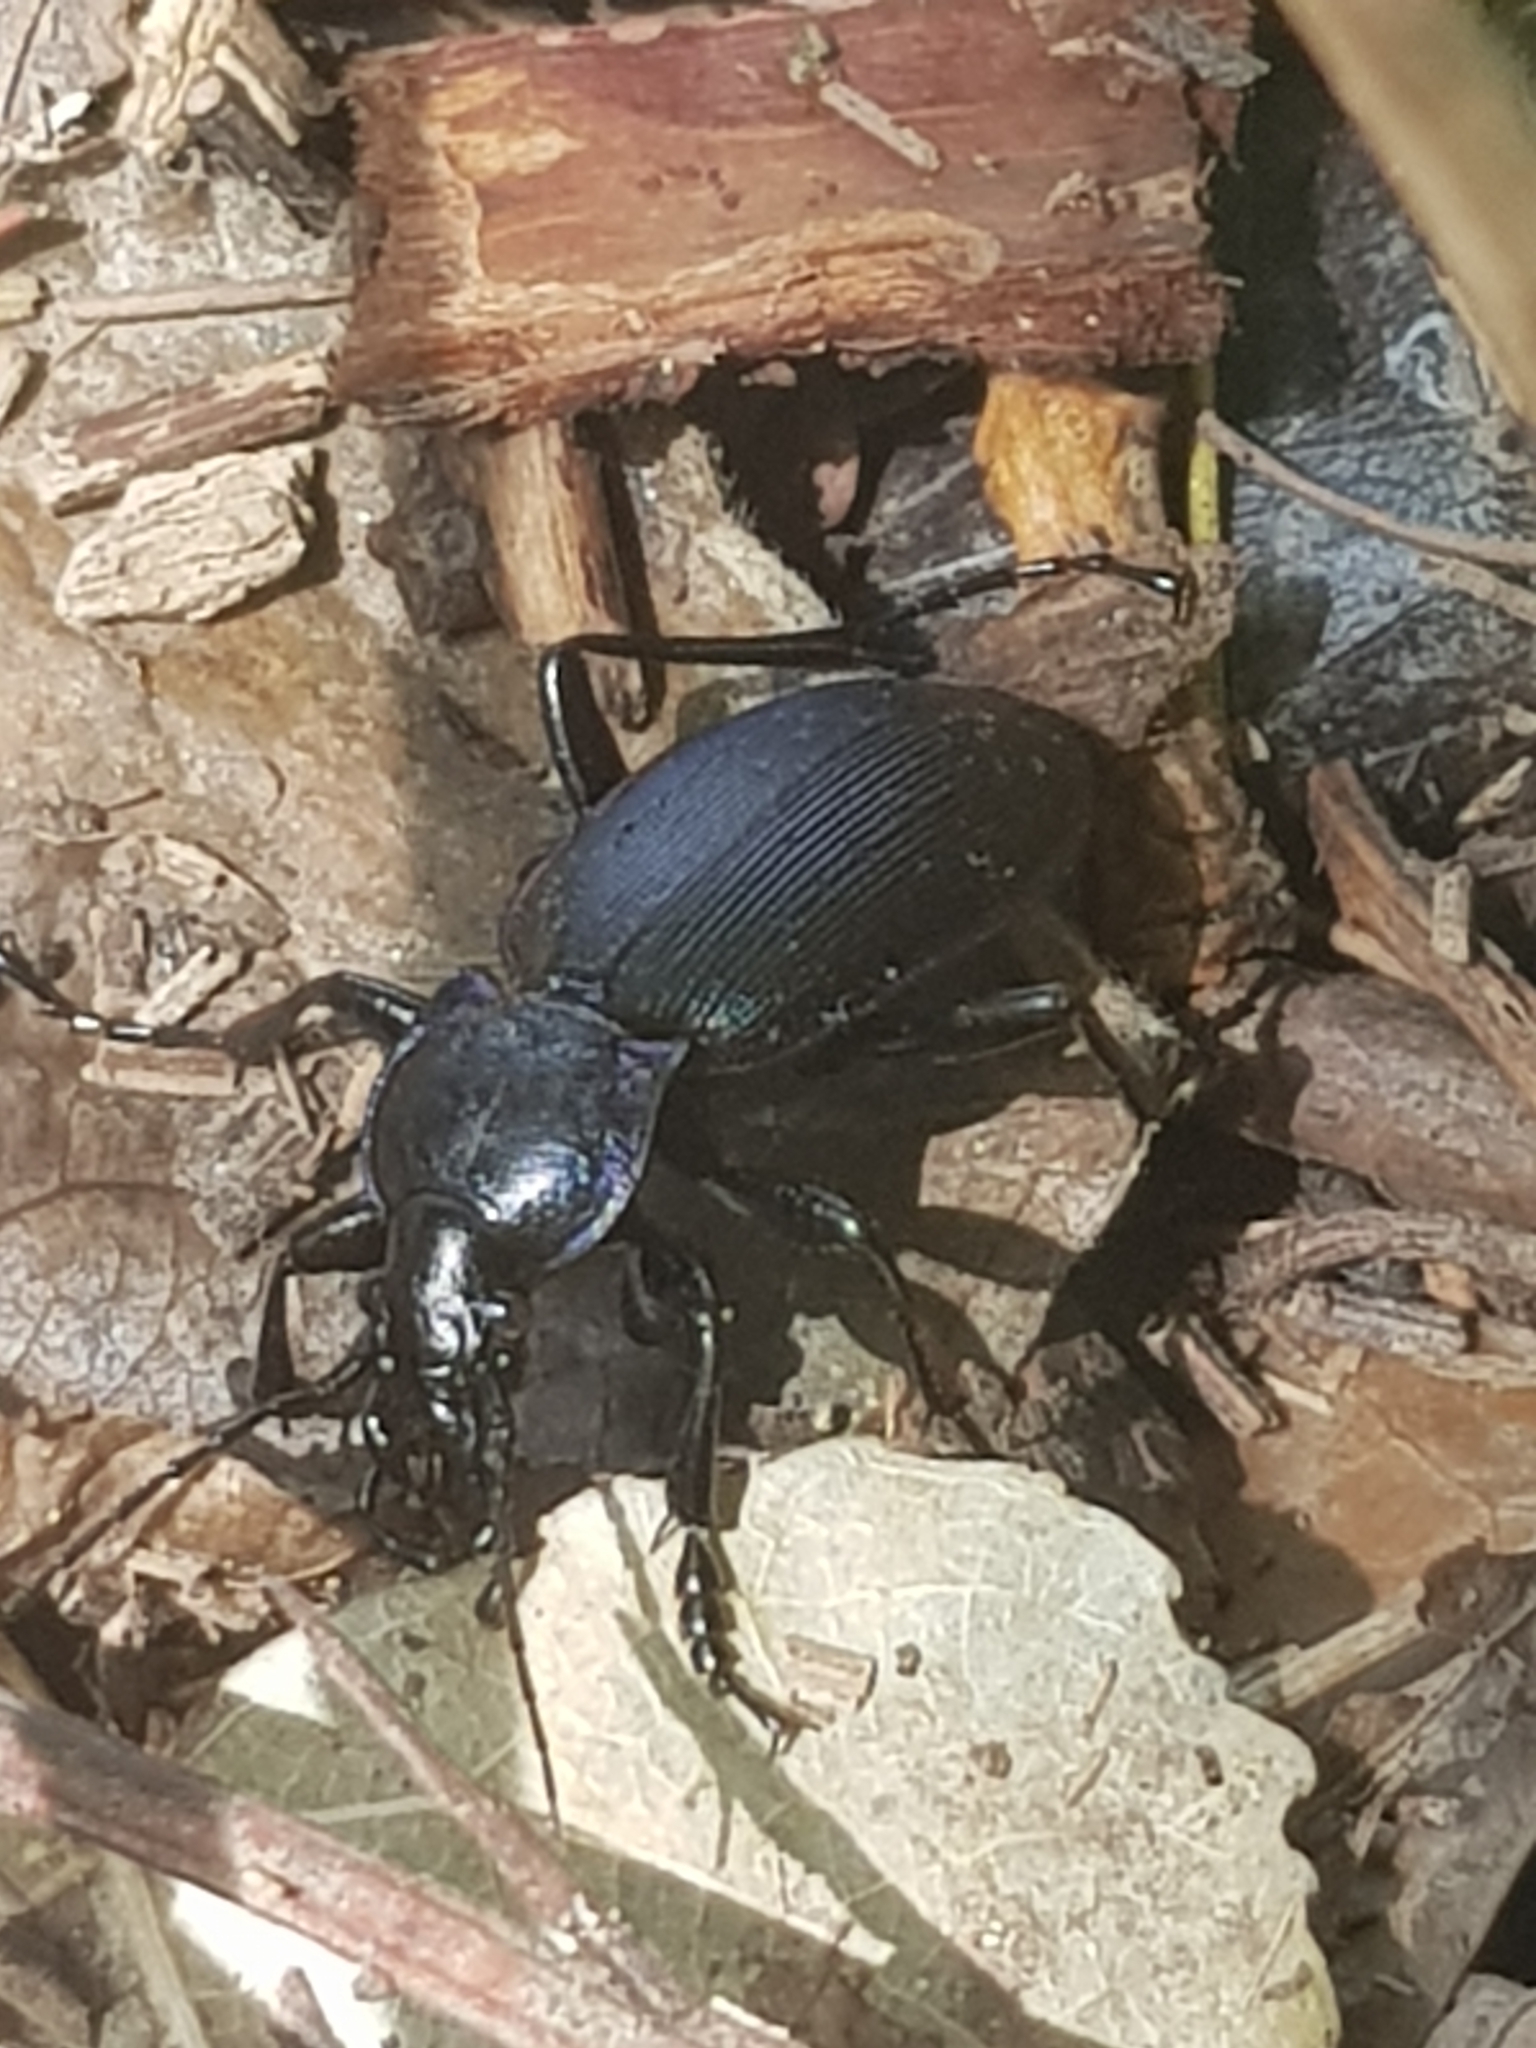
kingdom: Animalia
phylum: Arthropoda
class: Insecta
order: Coleoptera
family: Carabidae
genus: Carabus
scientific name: Carabus purpurascens
